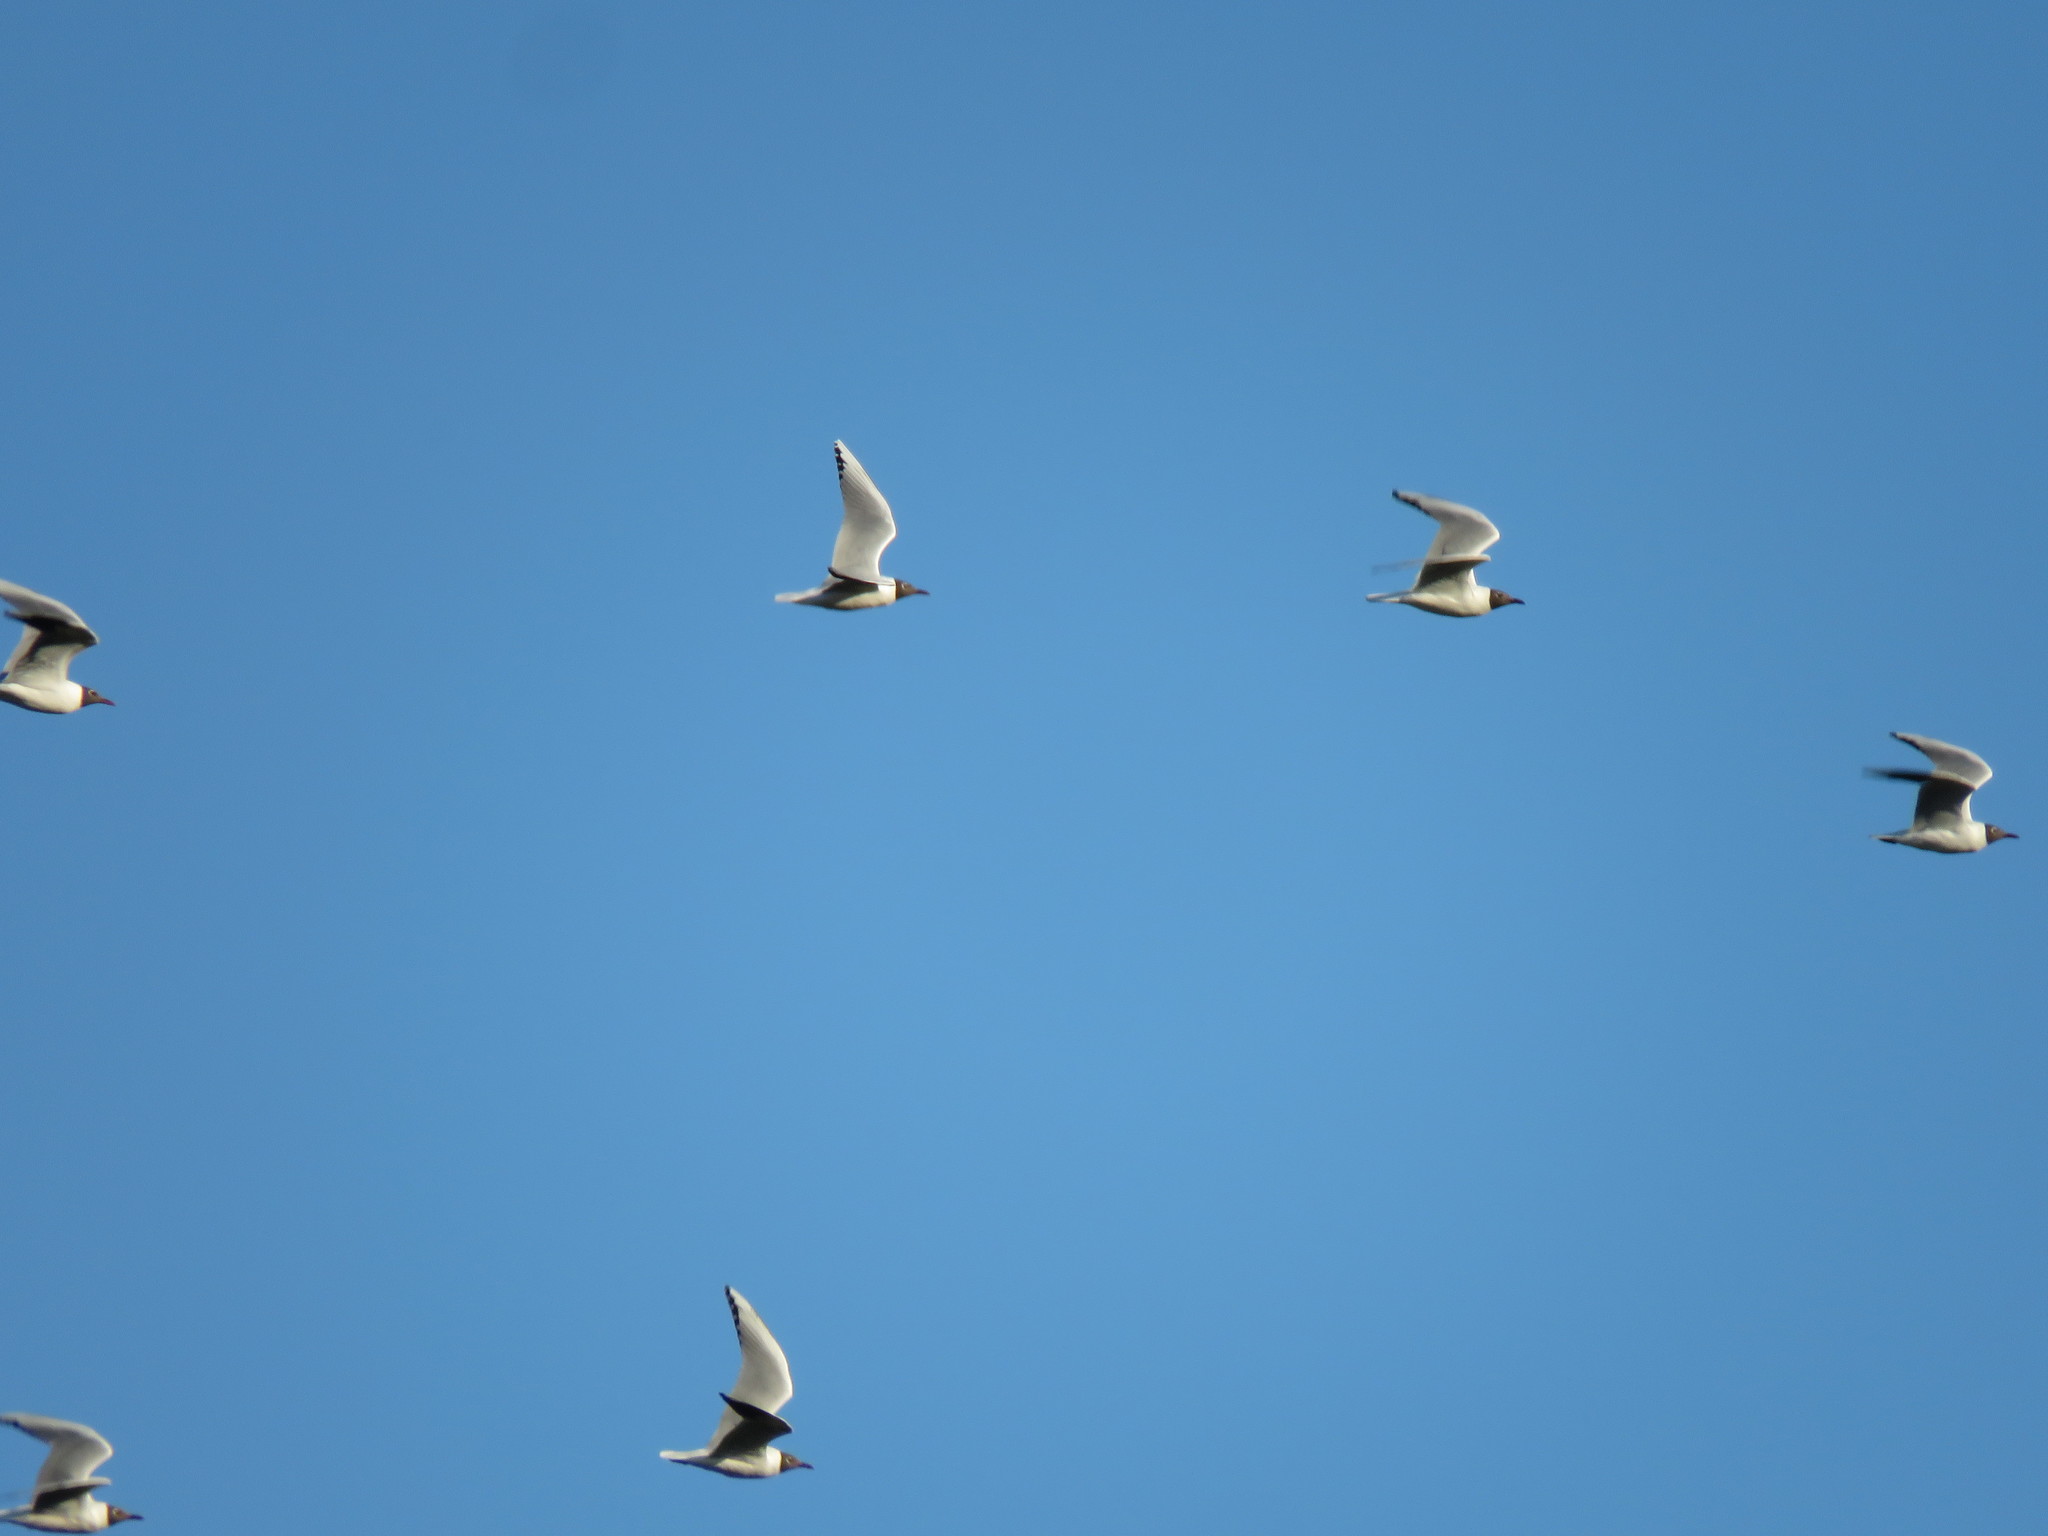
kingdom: Animalia
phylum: Chordata
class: Aves
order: Charadriiformes
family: Laridae
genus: Chroicocephalus
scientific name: Chroicocephalus maculipennis
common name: Brown-hooded gull
